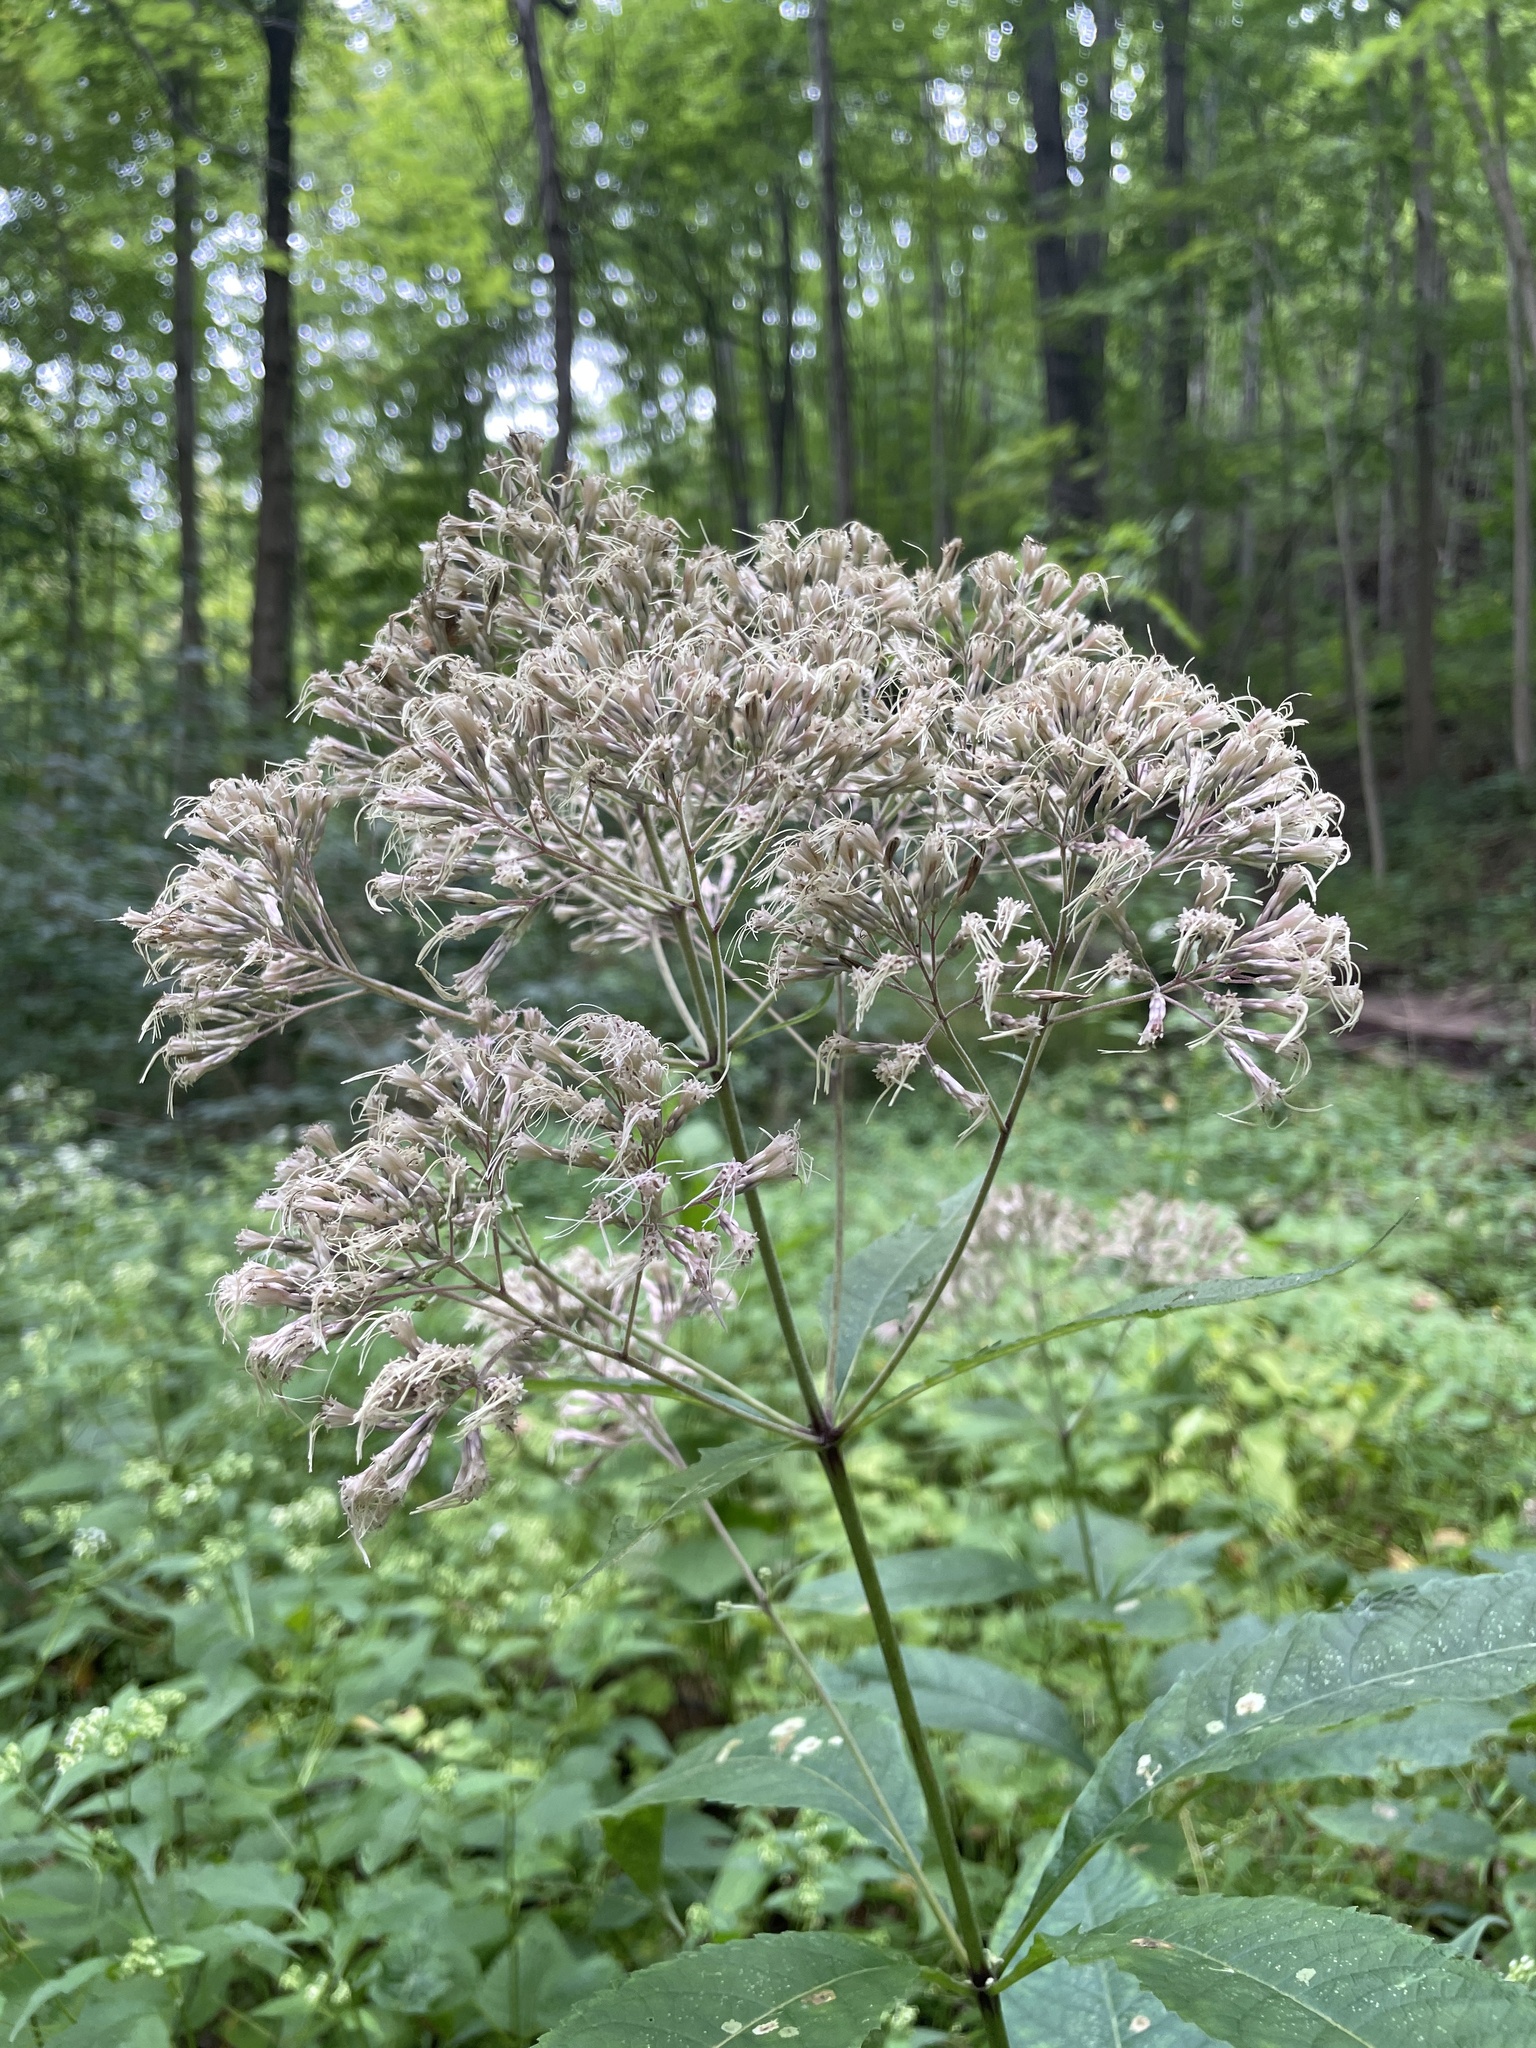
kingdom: Plantae
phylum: Tracheophyta
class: Magnoliopsida
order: Asterales
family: Asteraceae
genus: Eutrochium
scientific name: Eutrochium purpureum
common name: Gravelroot
